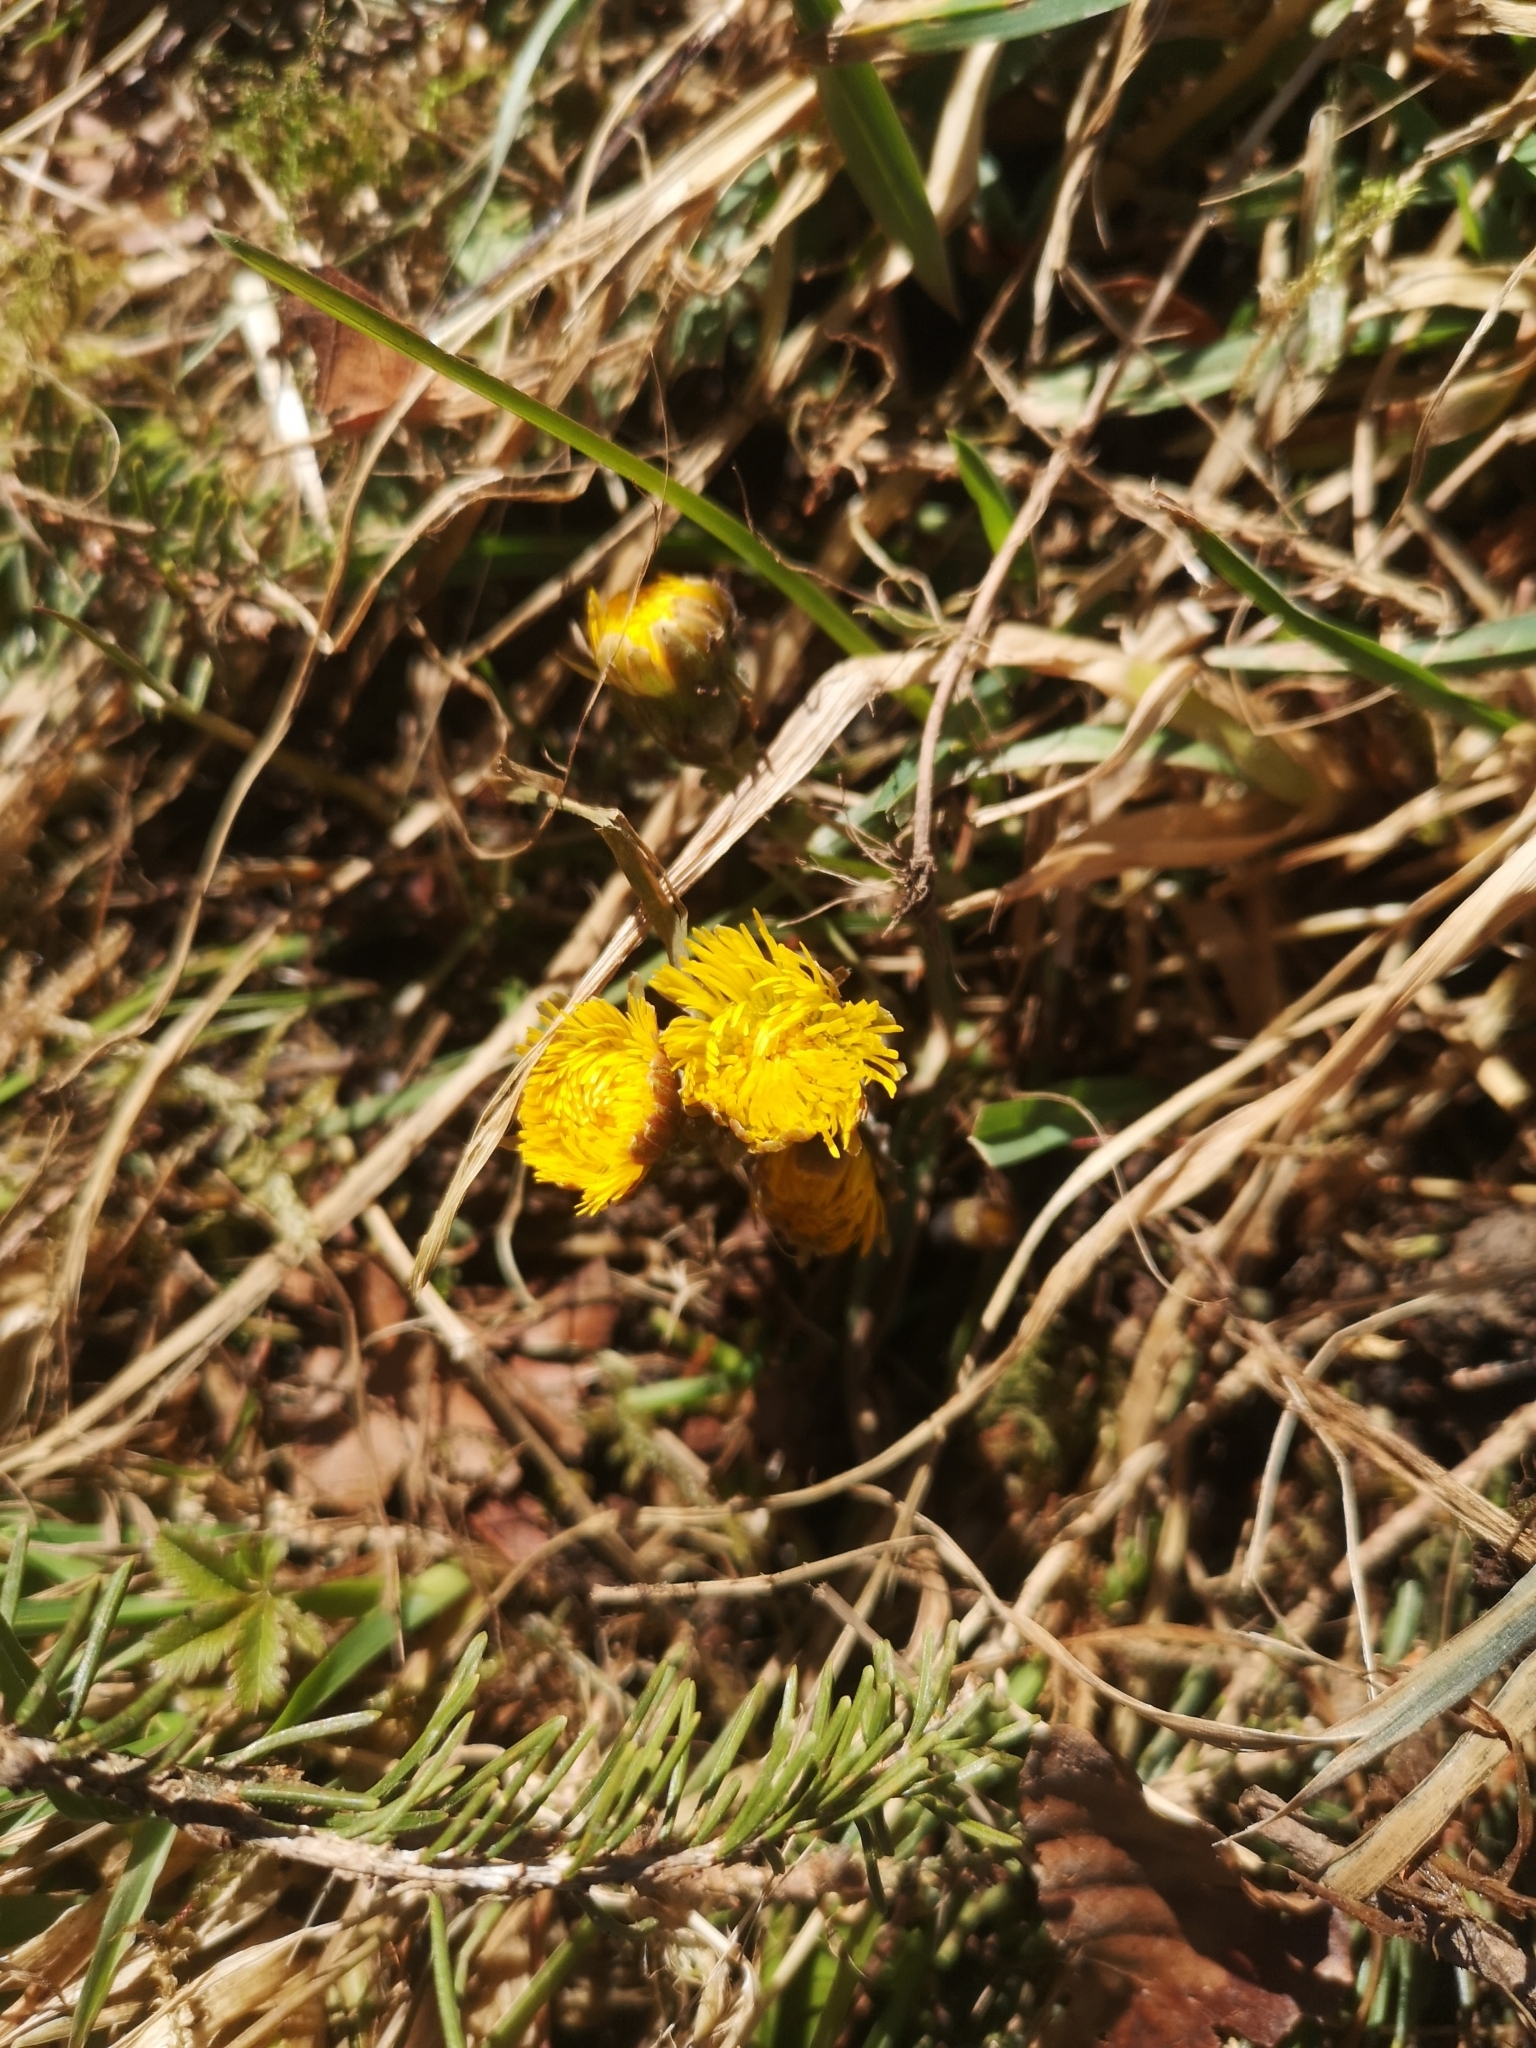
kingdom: Plantae
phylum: Tracheophyta
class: Magnoliopsida
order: Asterales
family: Asteraceae
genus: Tussilago
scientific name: Tussilago farfara
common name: Coltsfoot
